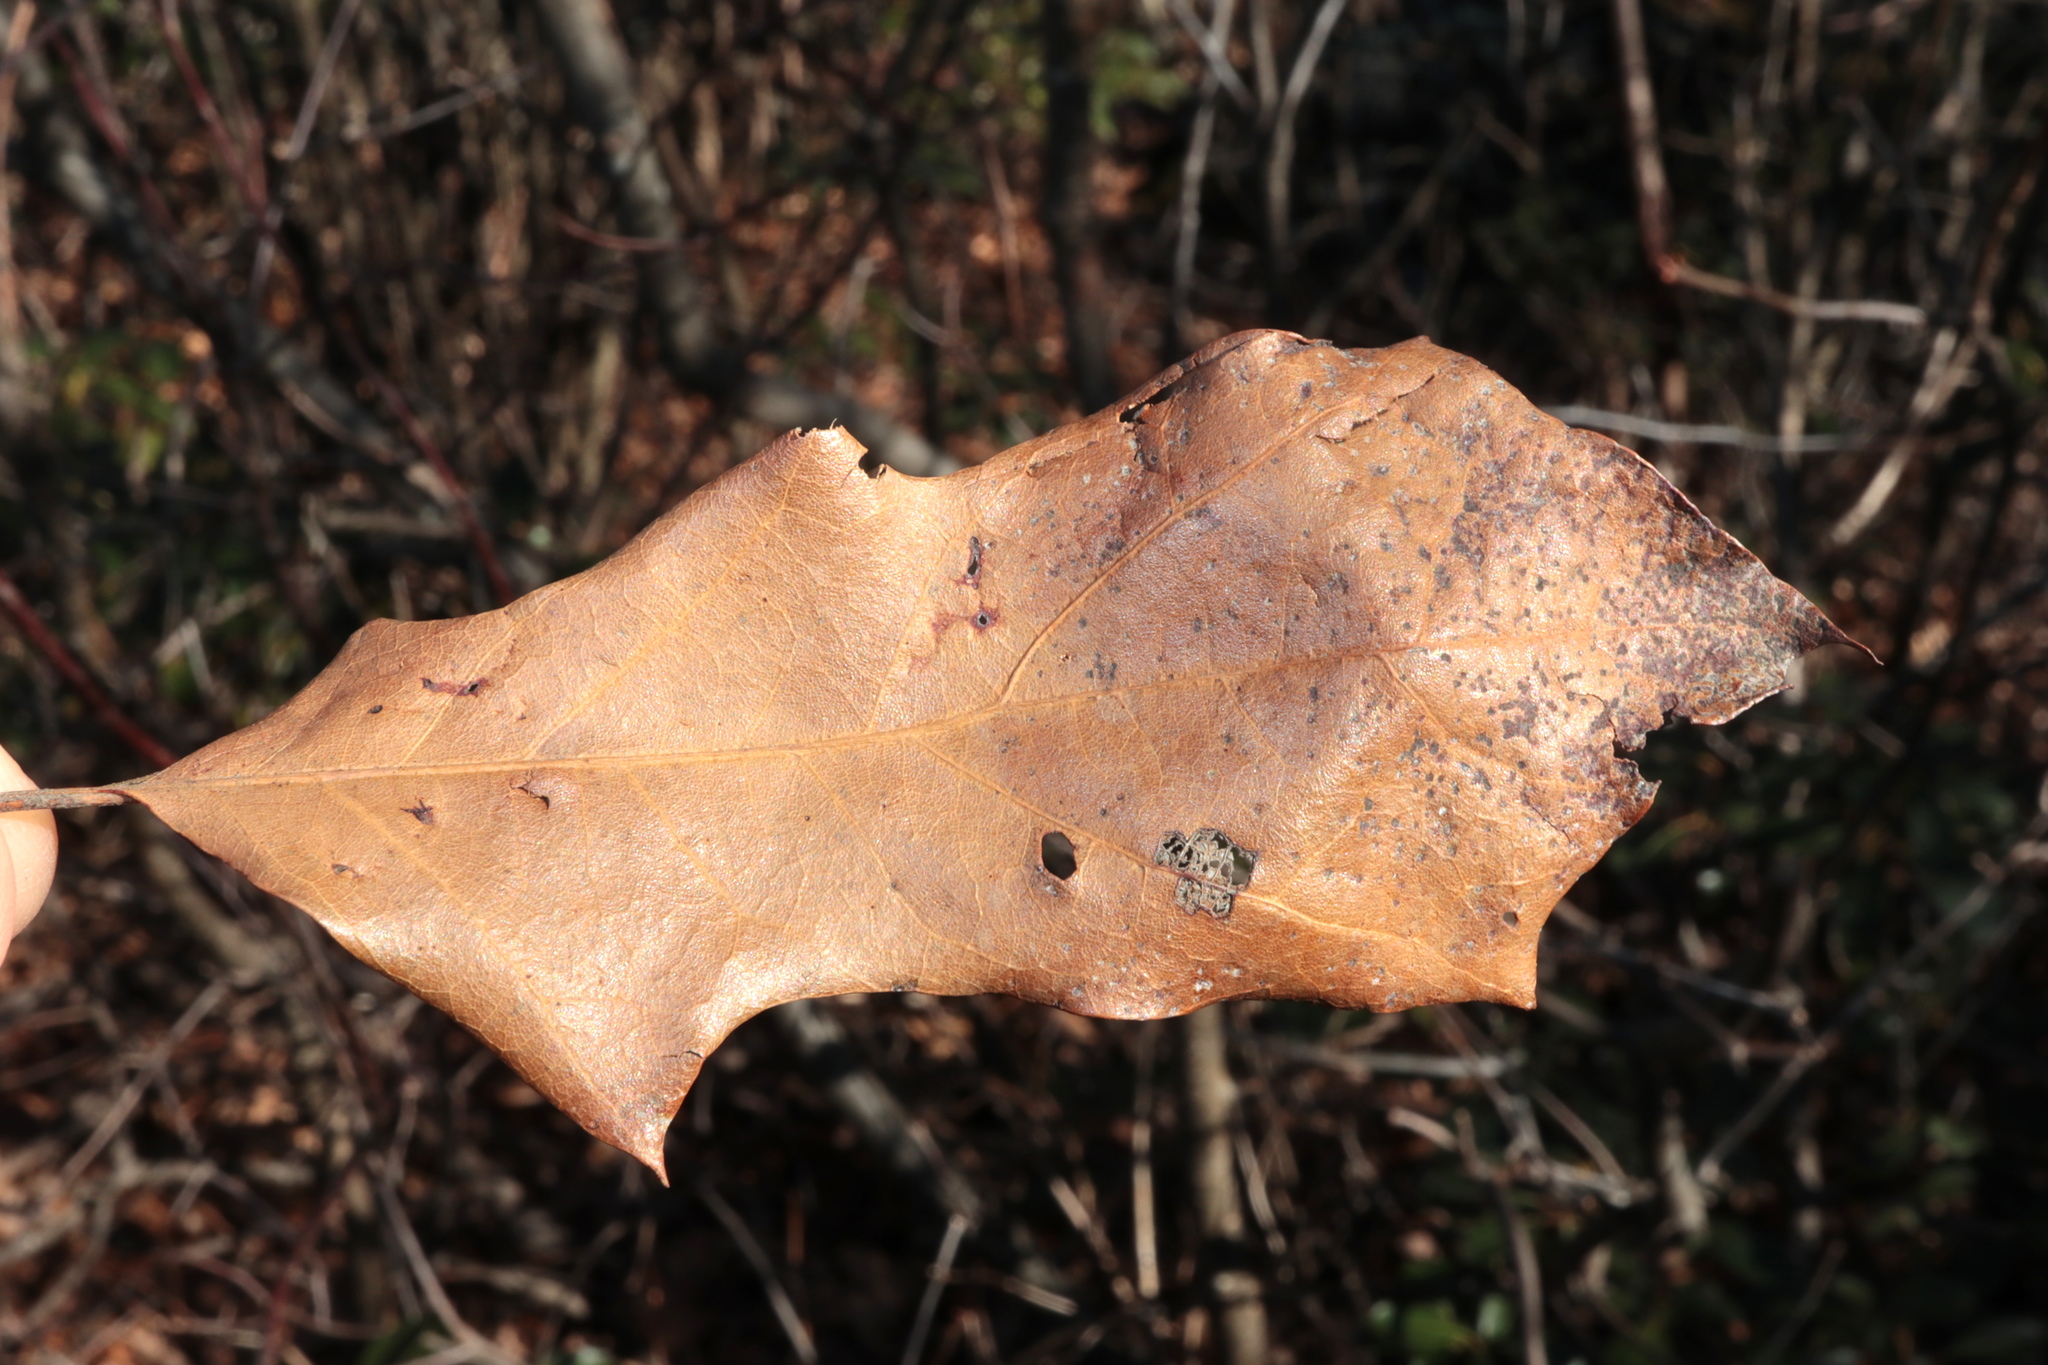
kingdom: Plantae
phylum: Tracheophyta
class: Magnoliopsida
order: Fagales
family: Fagaceae
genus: Quercus
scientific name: Quercus ilicifolia
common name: Bear oak
